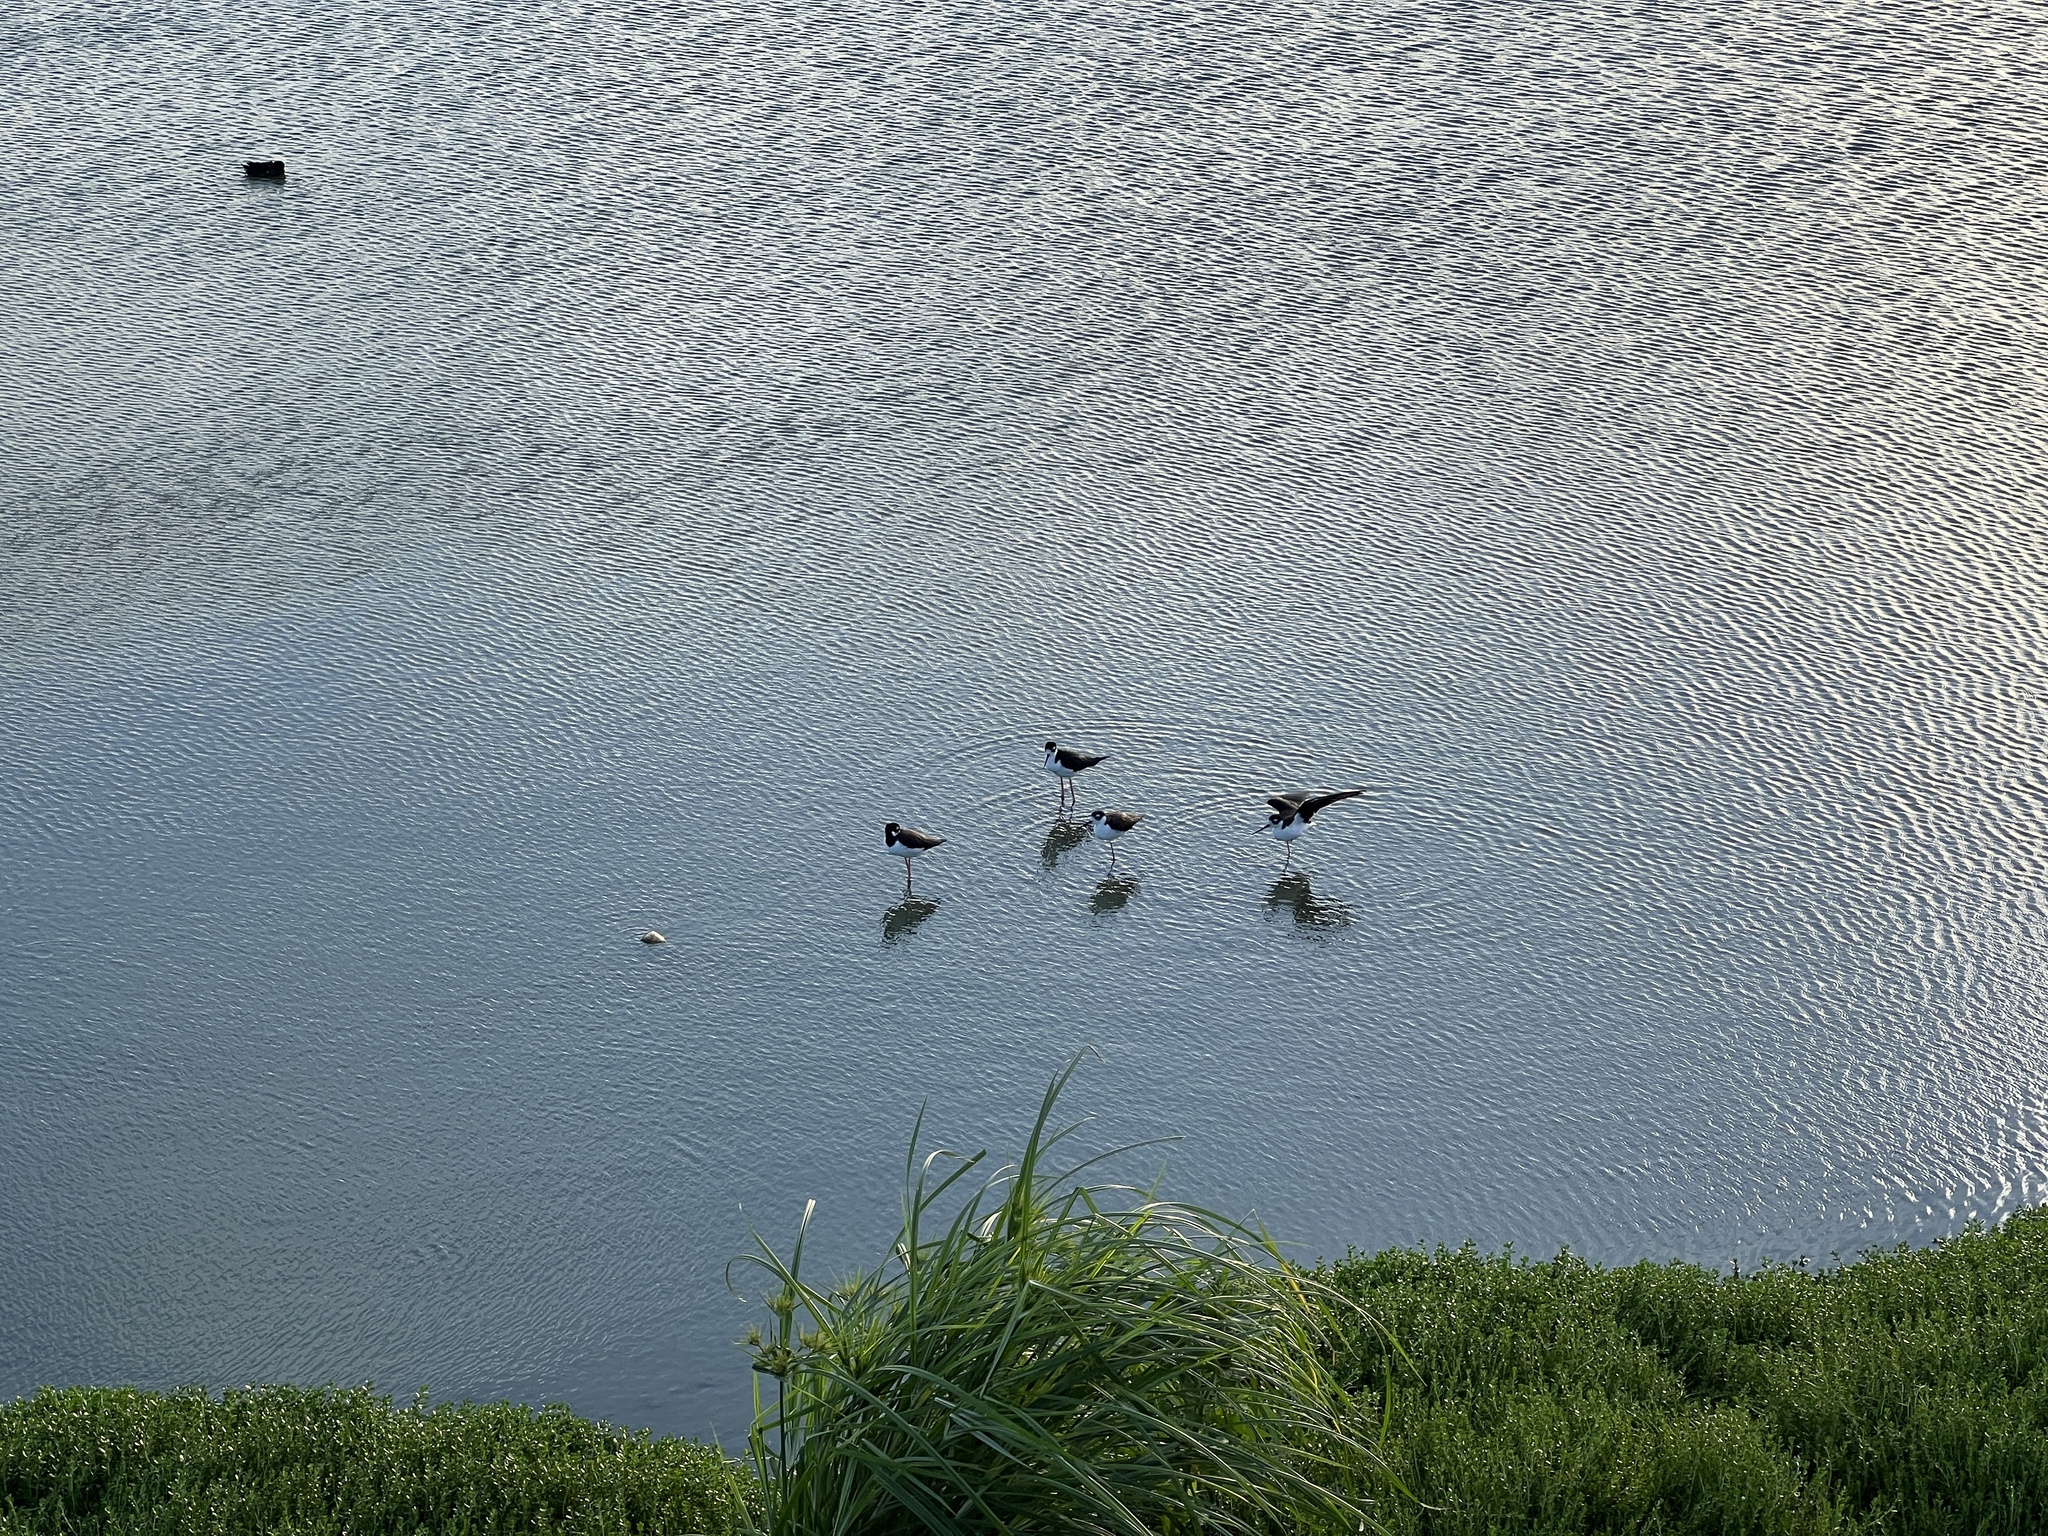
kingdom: Animalia
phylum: Chordata
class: Aves
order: Charadriiformes
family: Recurvirostridae
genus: Himantopus
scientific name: Himantopus mexicanus
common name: Black-necked stilt
